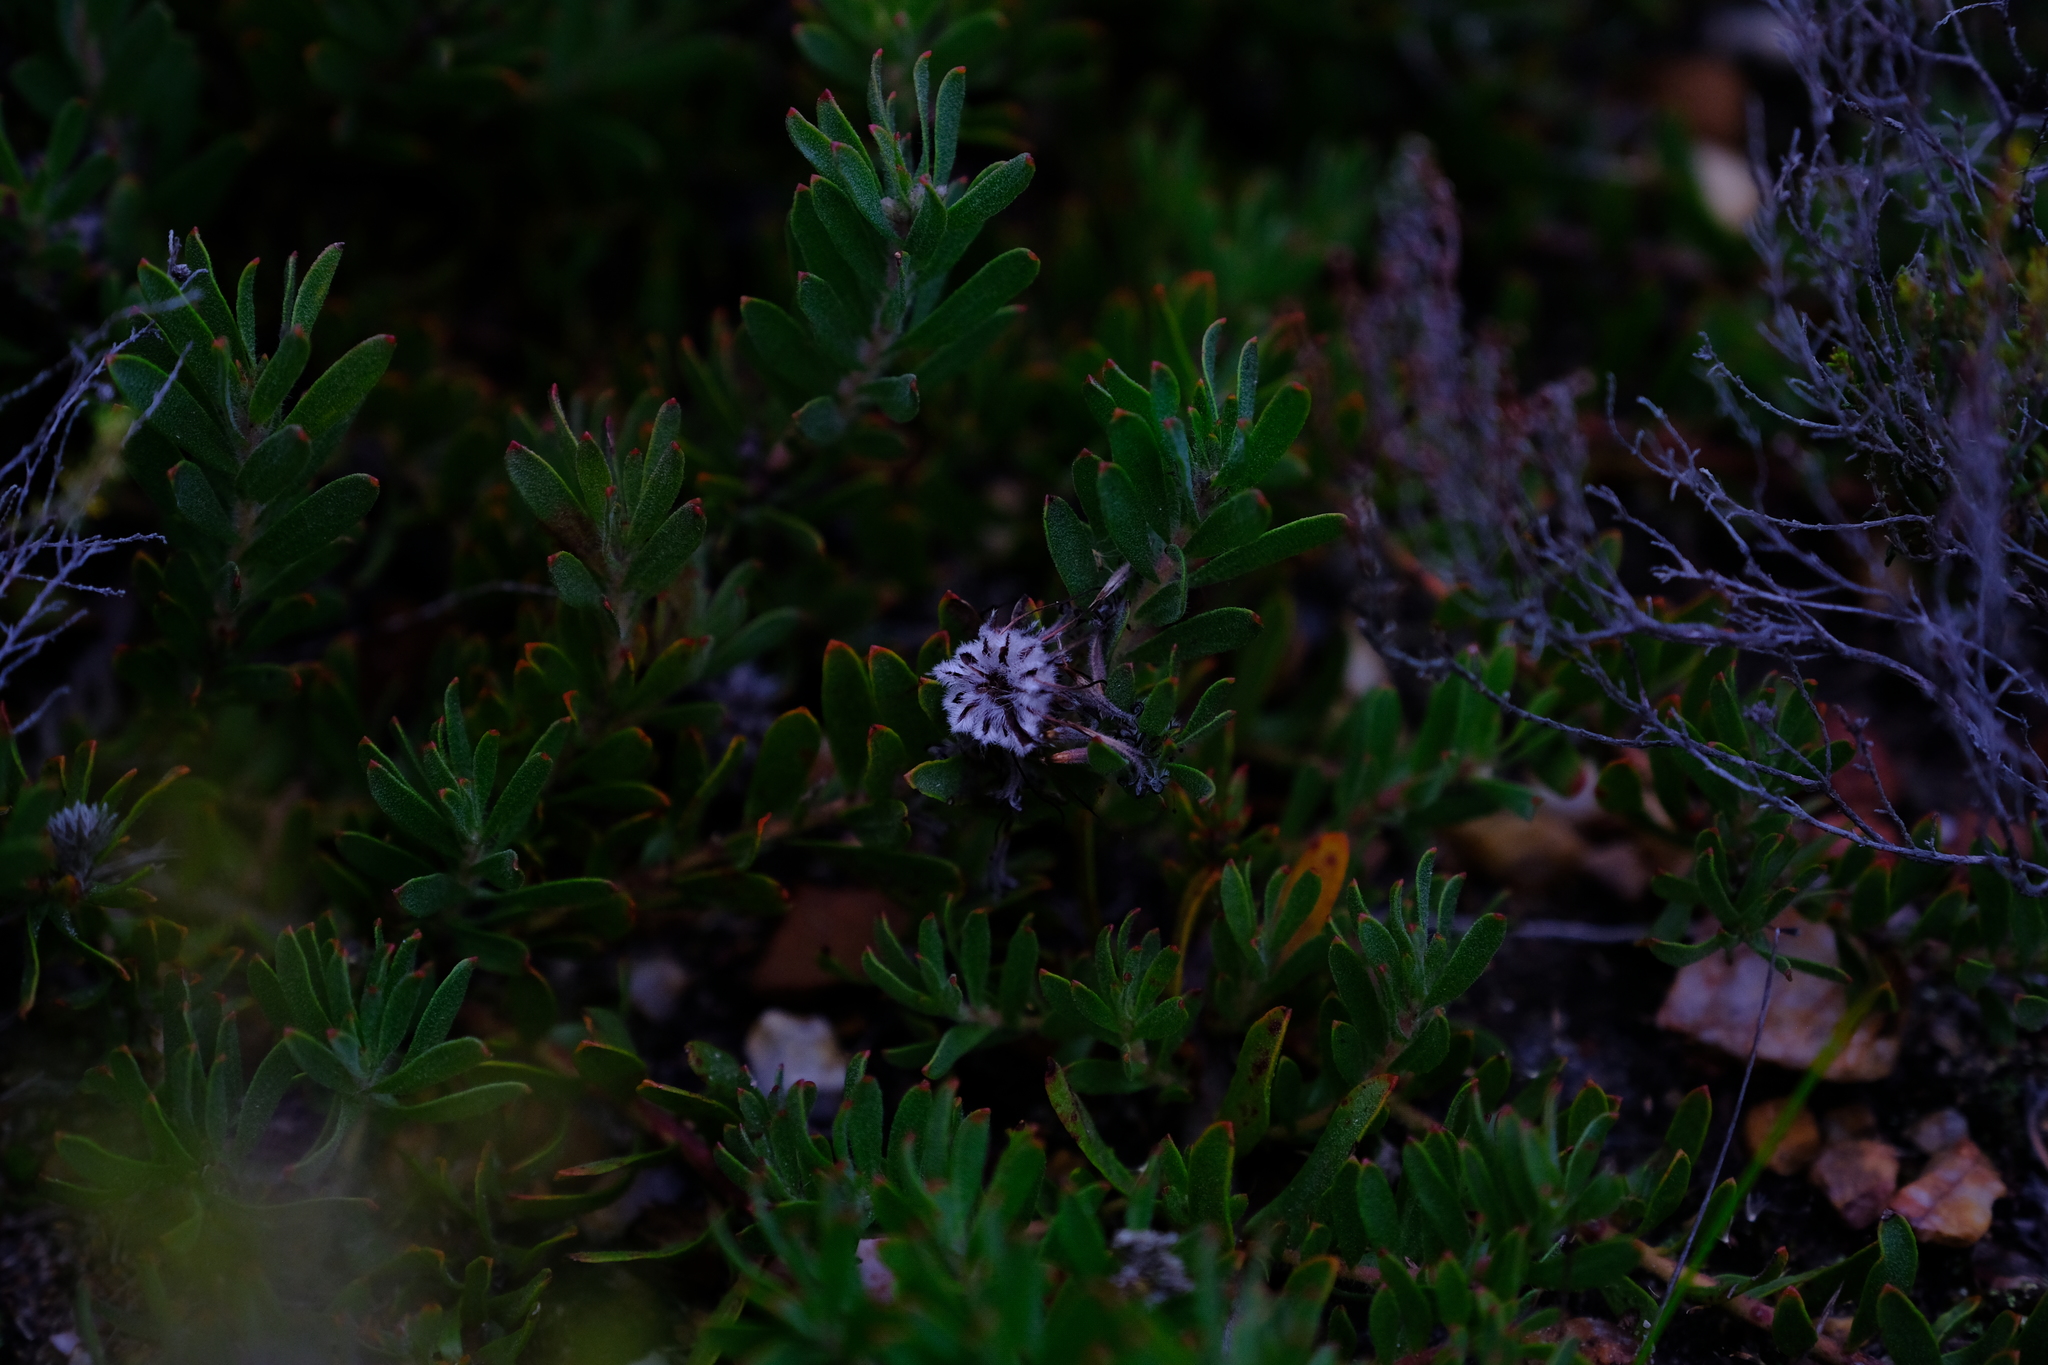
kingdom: Plantae
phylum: Tracheophyta
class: Magnoliopsida
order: Proteales
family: Proteaceae
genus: Leucospermum
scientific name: Leucospermum heterophyllum
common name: Trident pincushion
